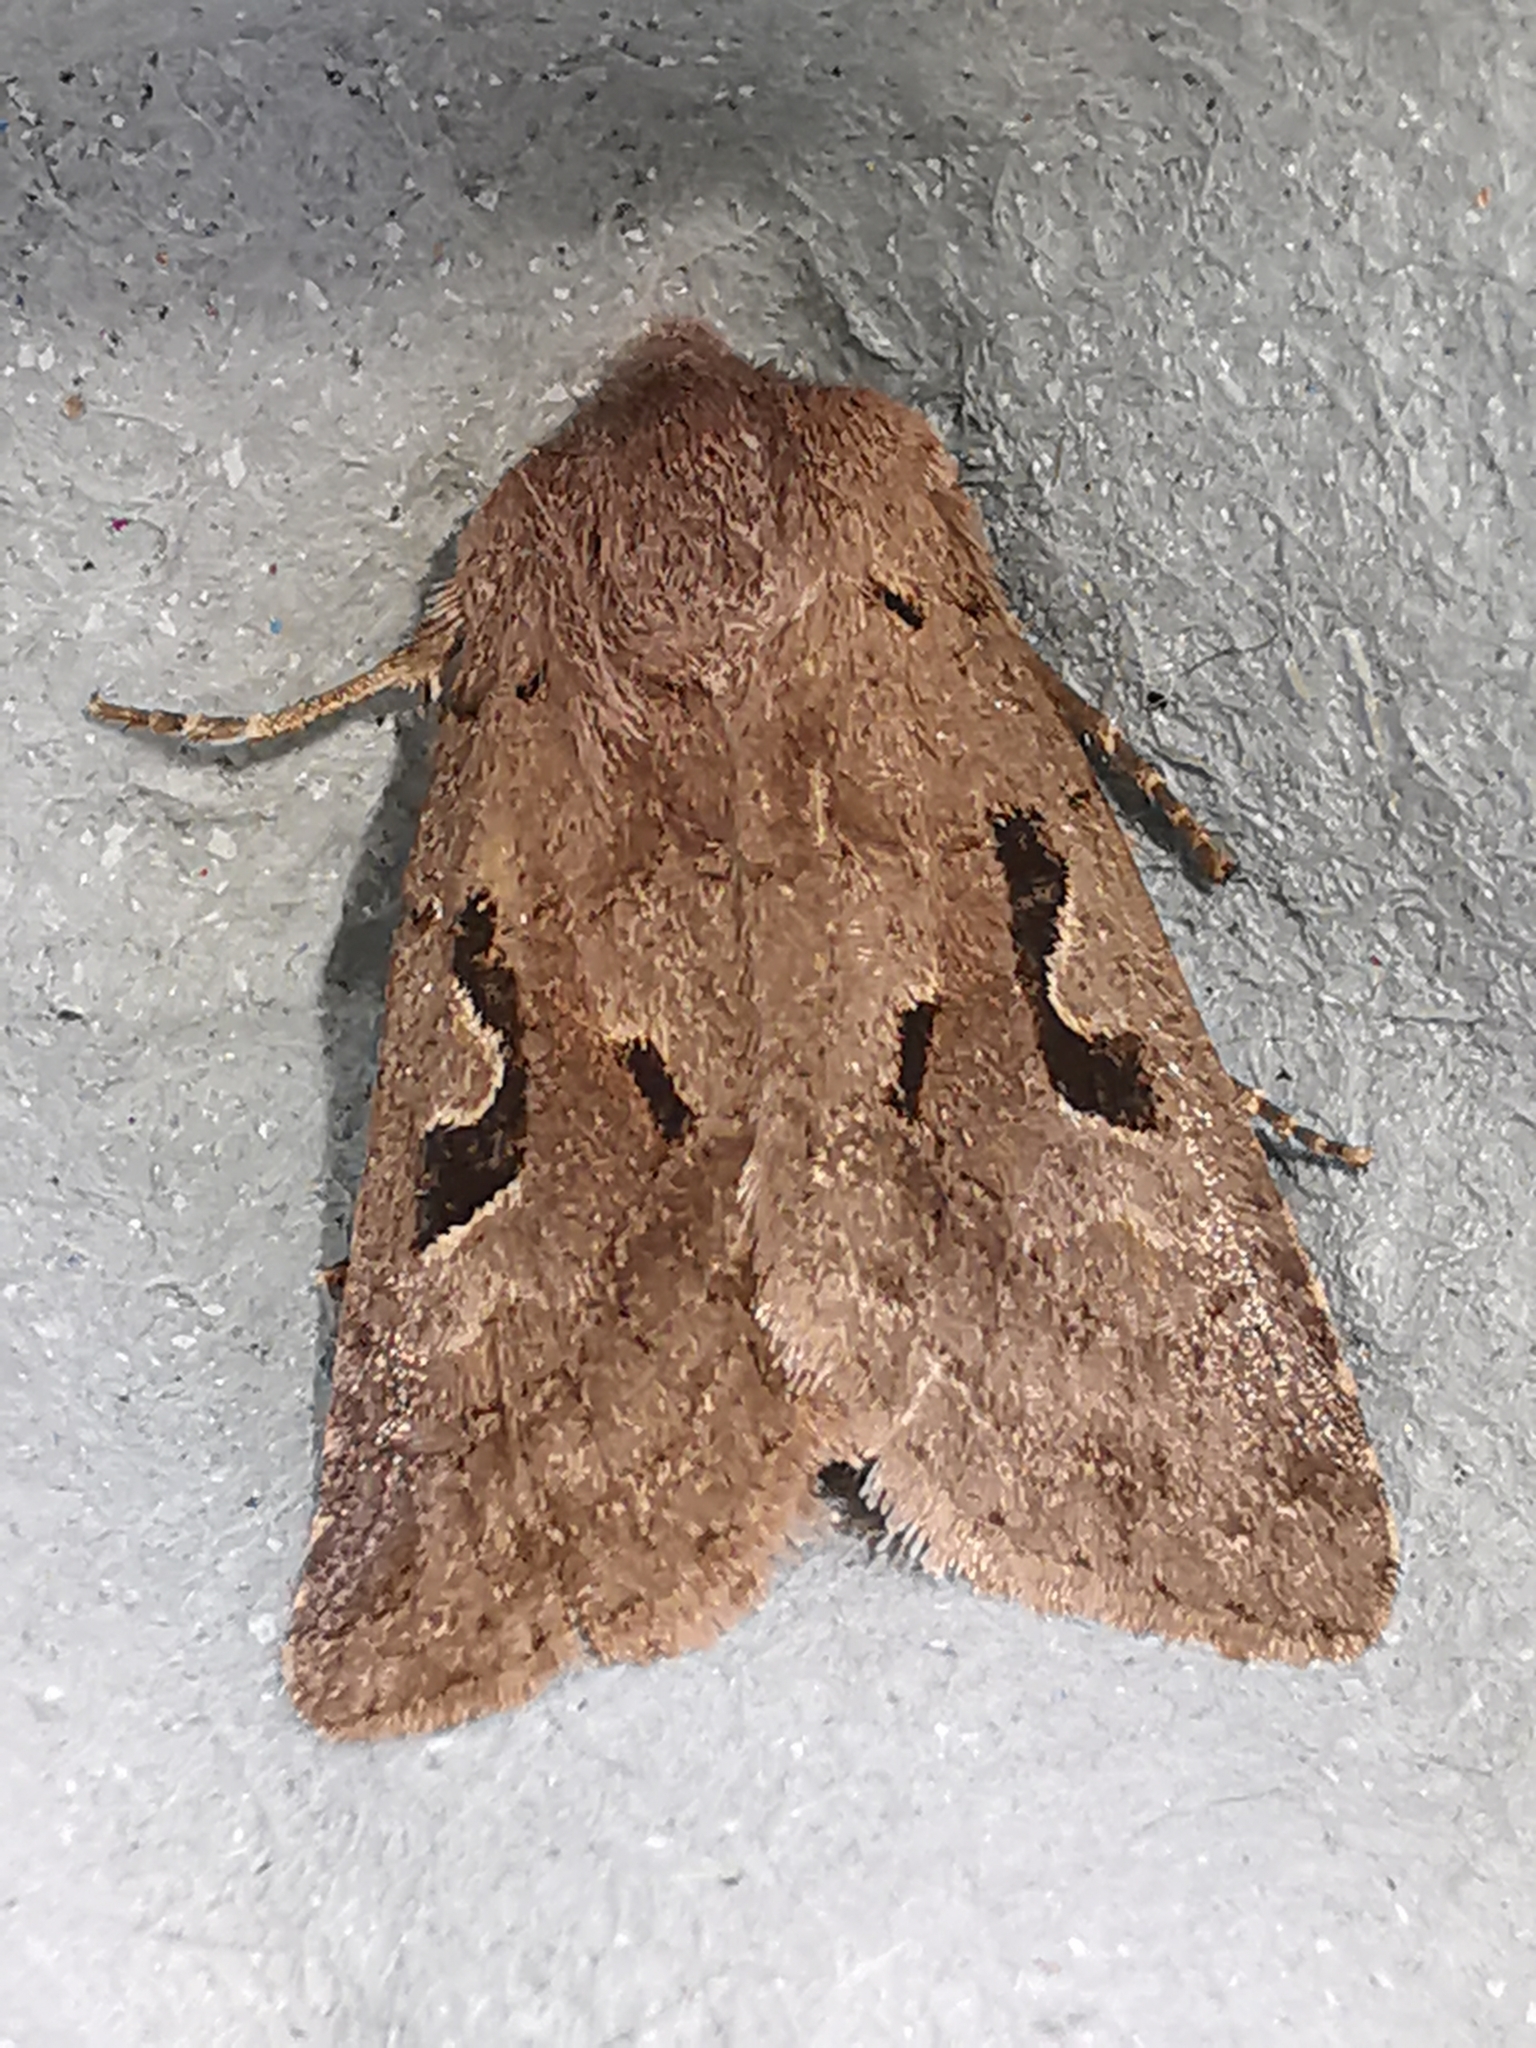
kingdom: Animalia
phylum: Arthropoda
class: Insecta
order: Lepidoptera
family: Noctuidae
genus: Orthosia
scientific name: Orthosia gothica
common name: Hebrew character
